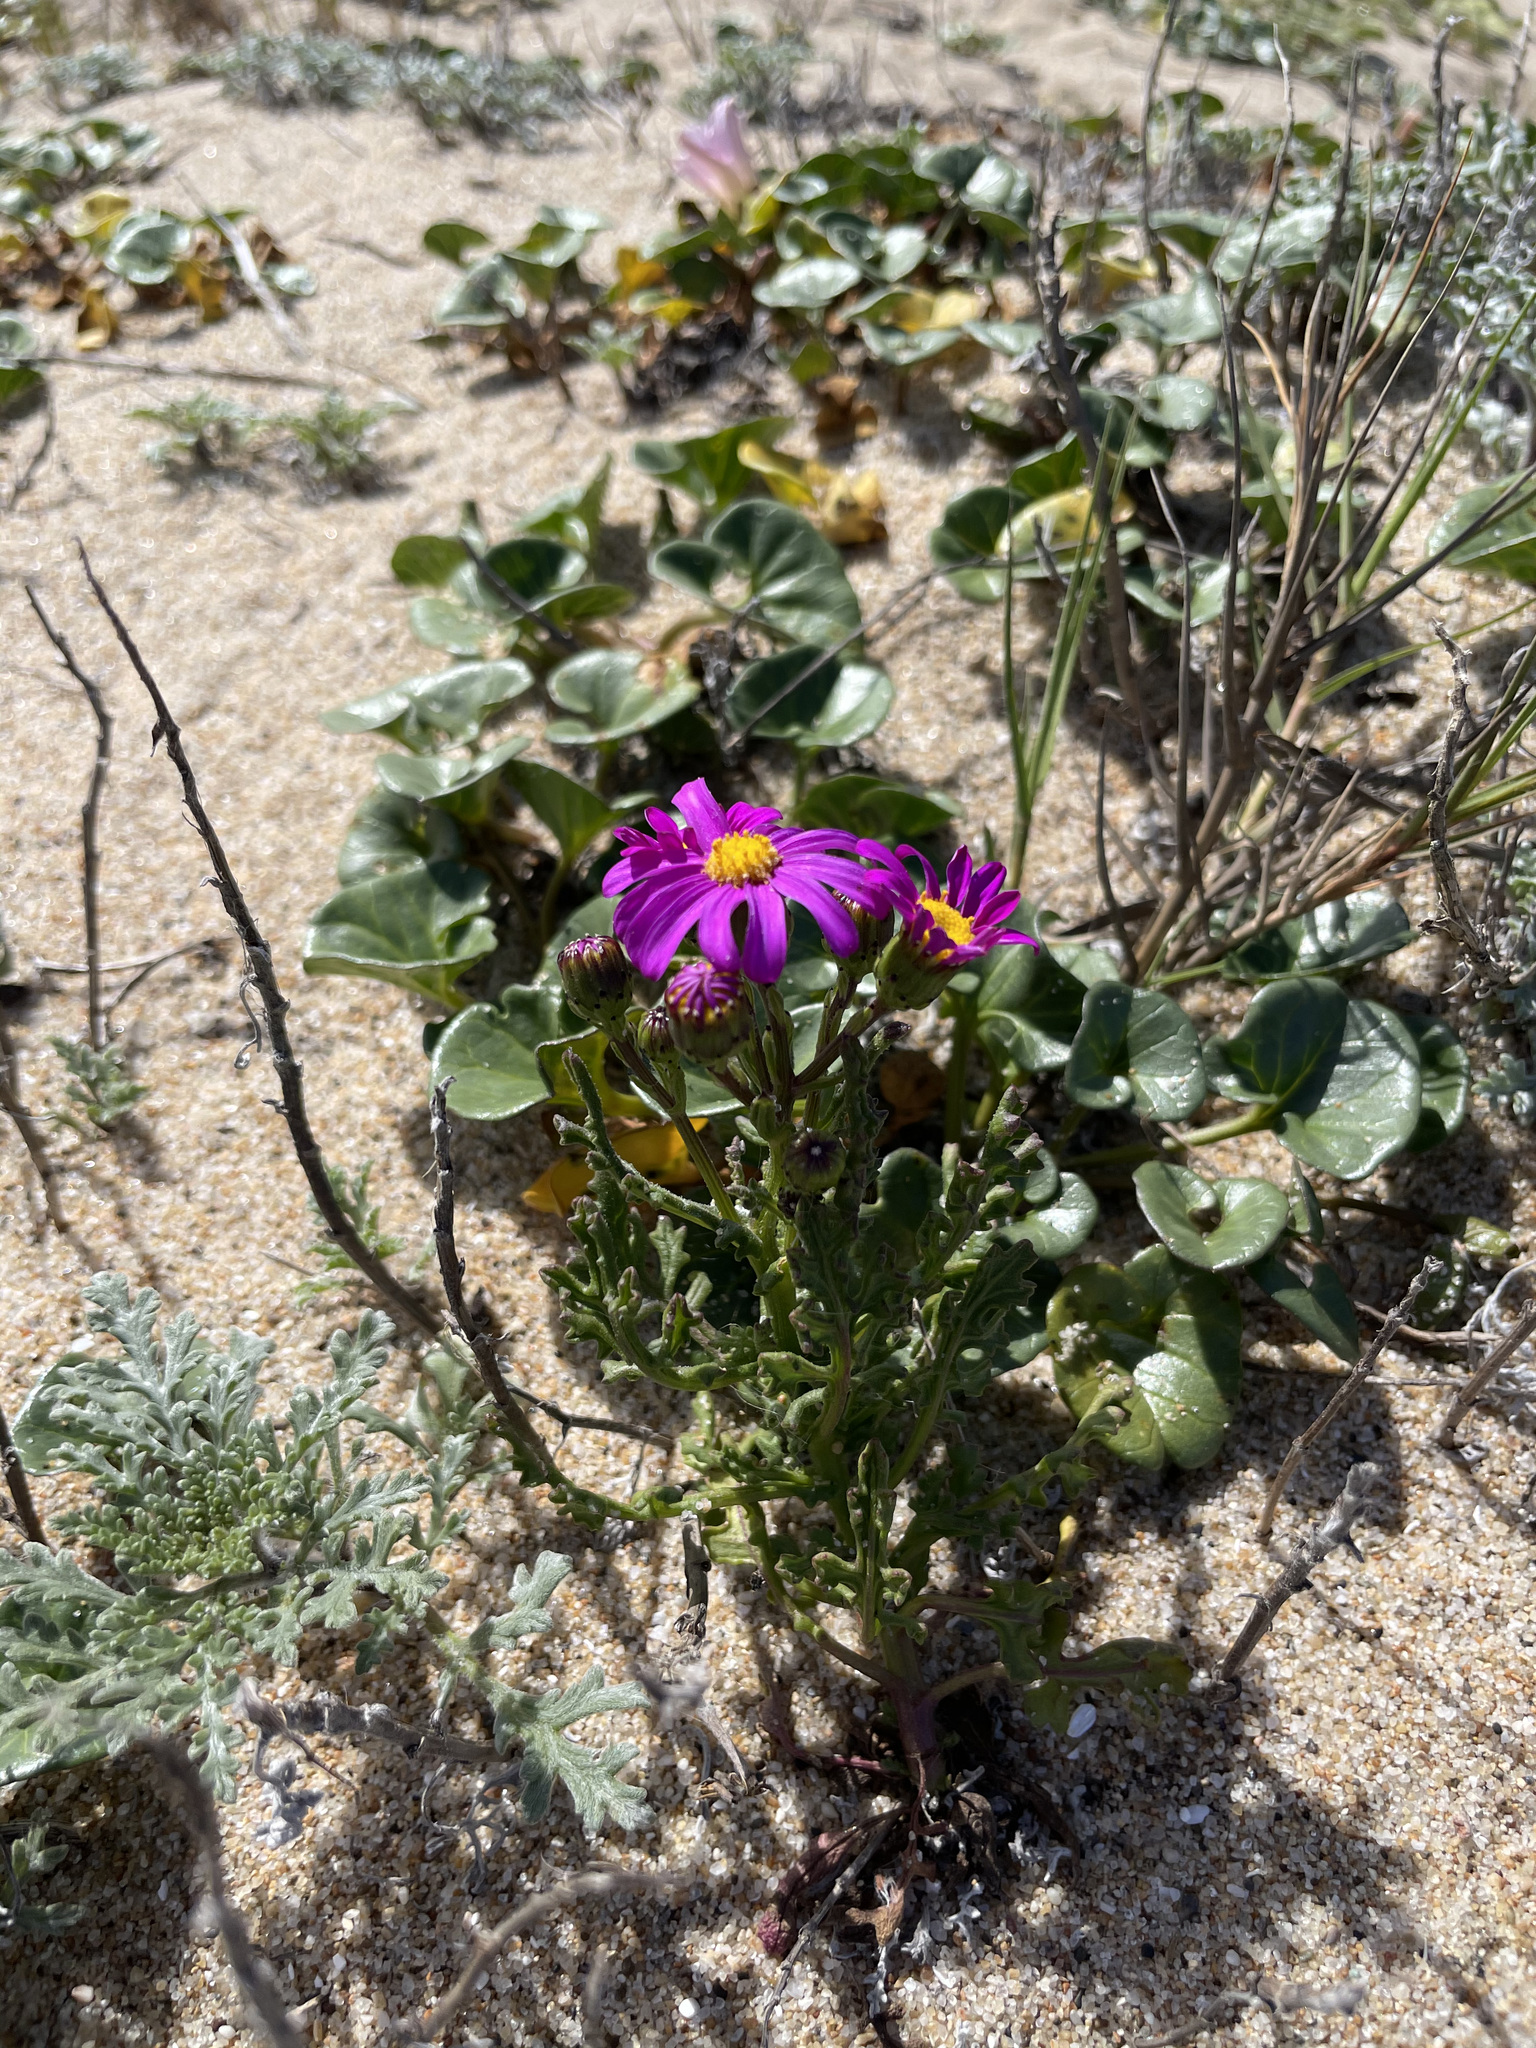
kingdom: Plantae
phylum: Tracheophyta
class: Magnoliopsida
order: Asterales
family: Asteraceae
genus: Senecio
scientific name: Senecio elegans
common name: Purple groundsel
